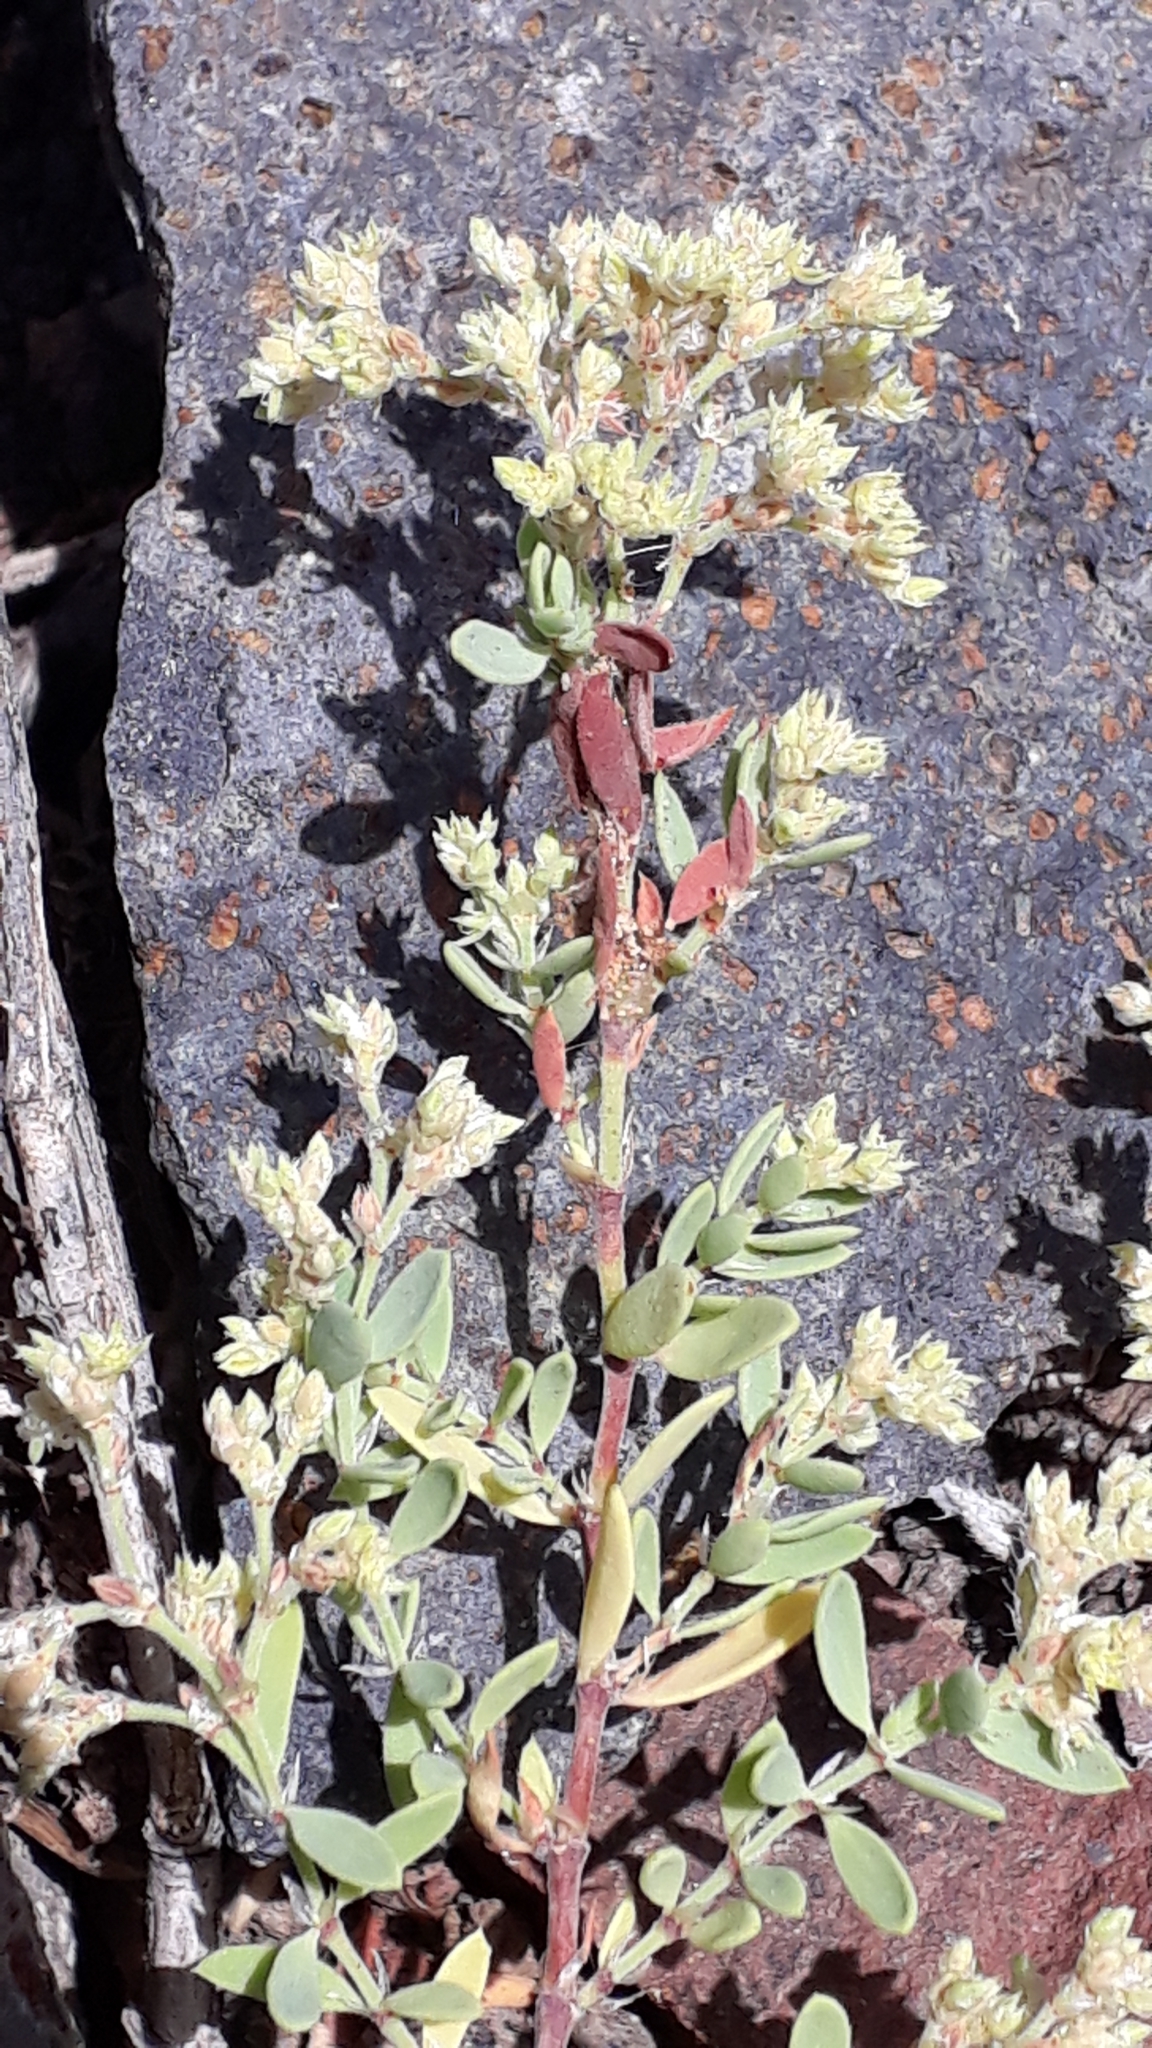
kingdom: Plantae
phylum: Tracheophyta
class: Magnoliopsida
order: Caryophyllales
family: Caryophyllaceae
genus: Paronychia
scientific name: Paronychia canariensis
